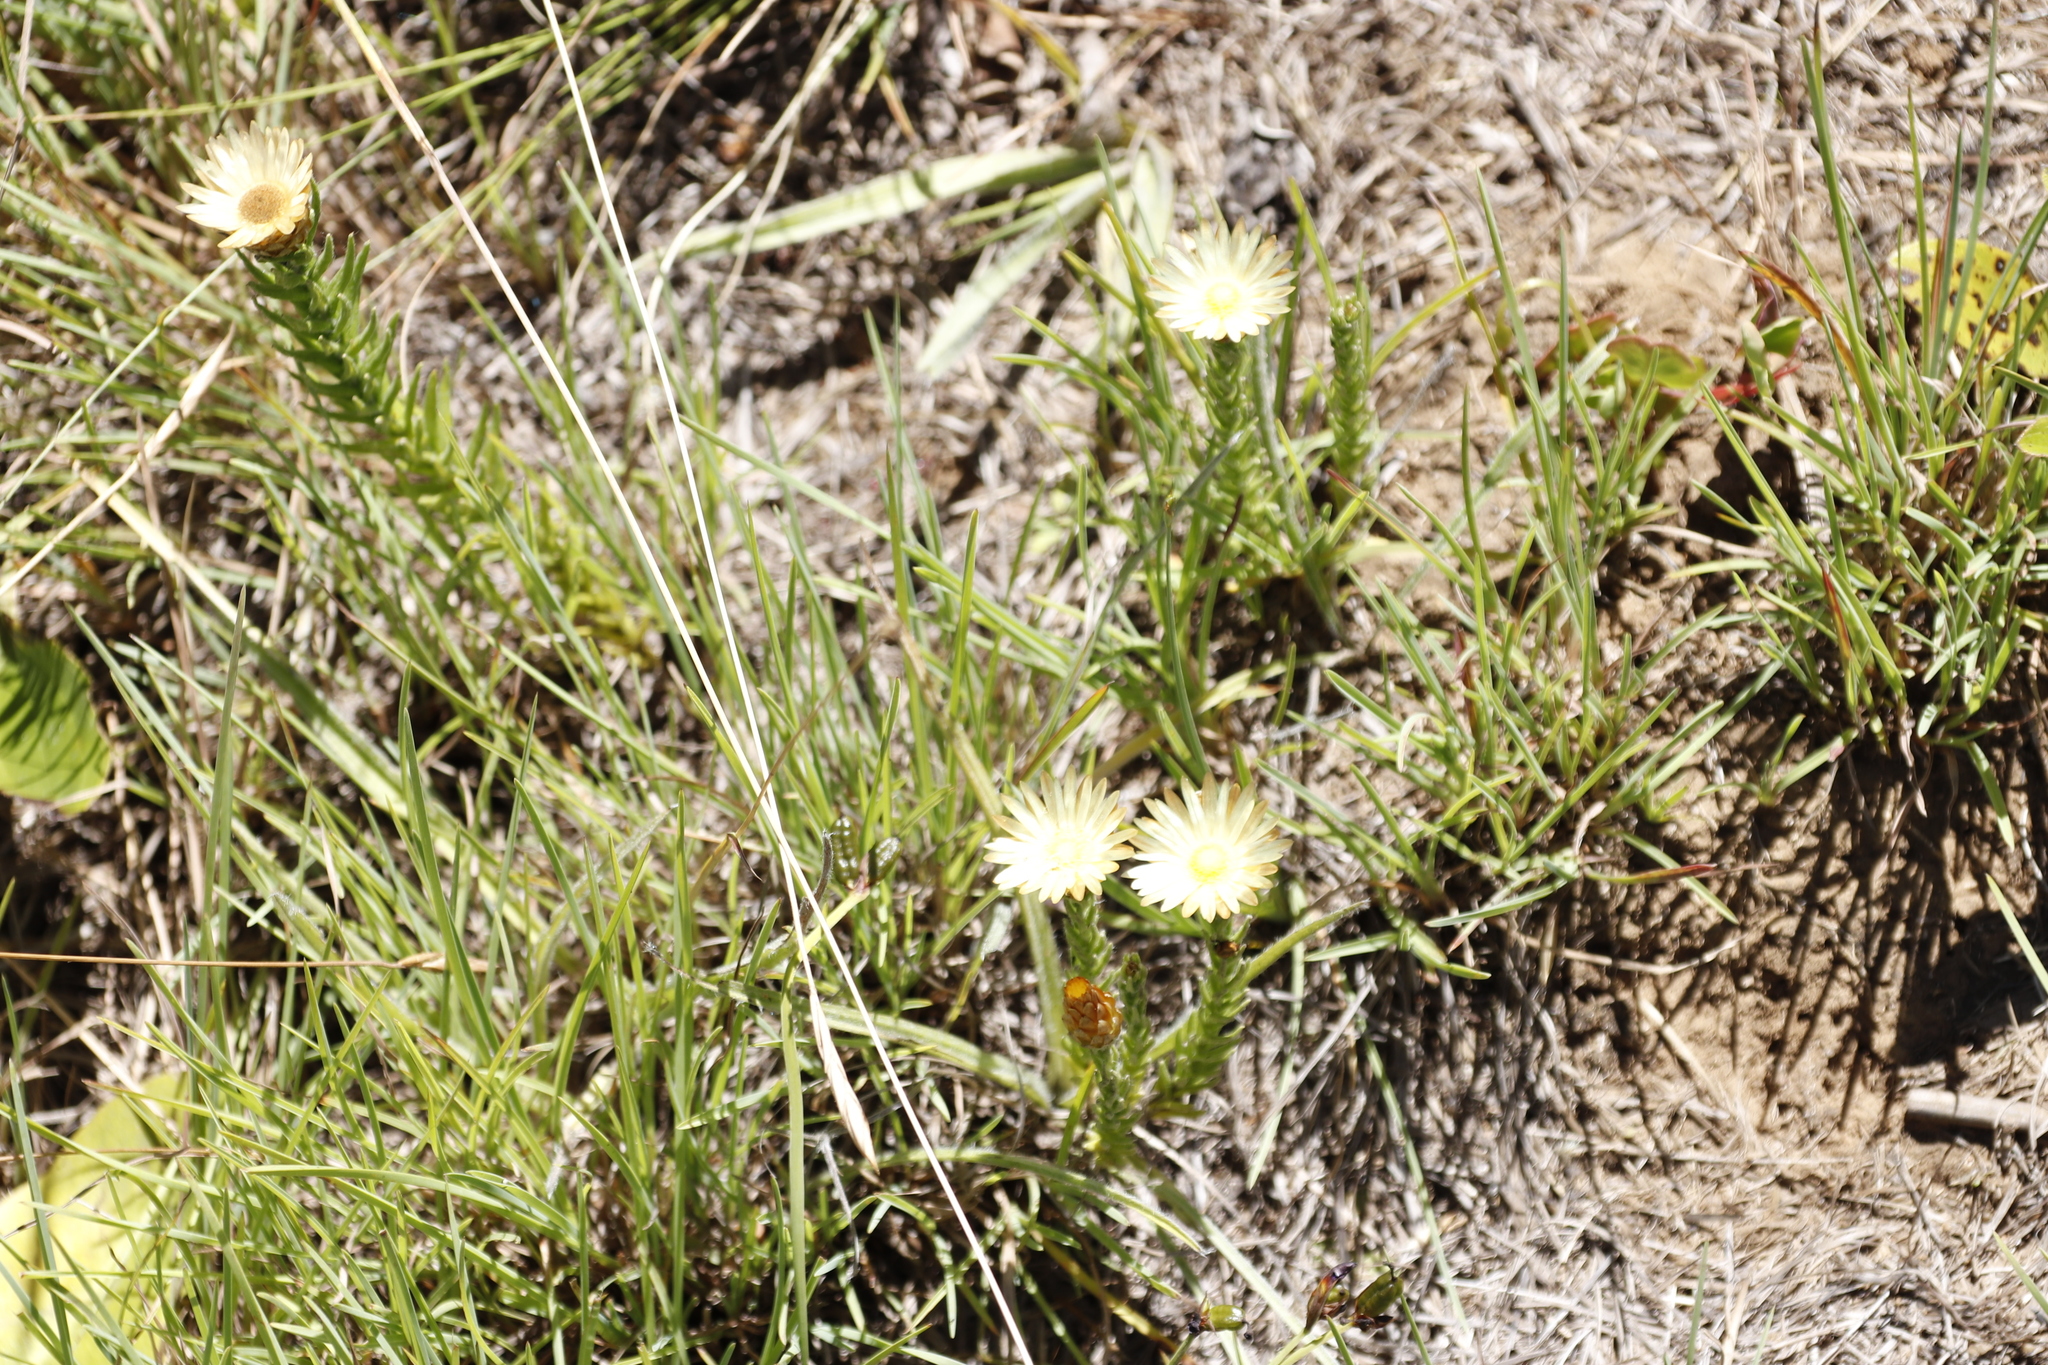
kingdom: Plantae
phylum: Tracheophyta
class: Magnoliopsida
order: Asterales
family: Asteraceae
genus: Helichrysum
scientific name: Helichrysum herbaceum
